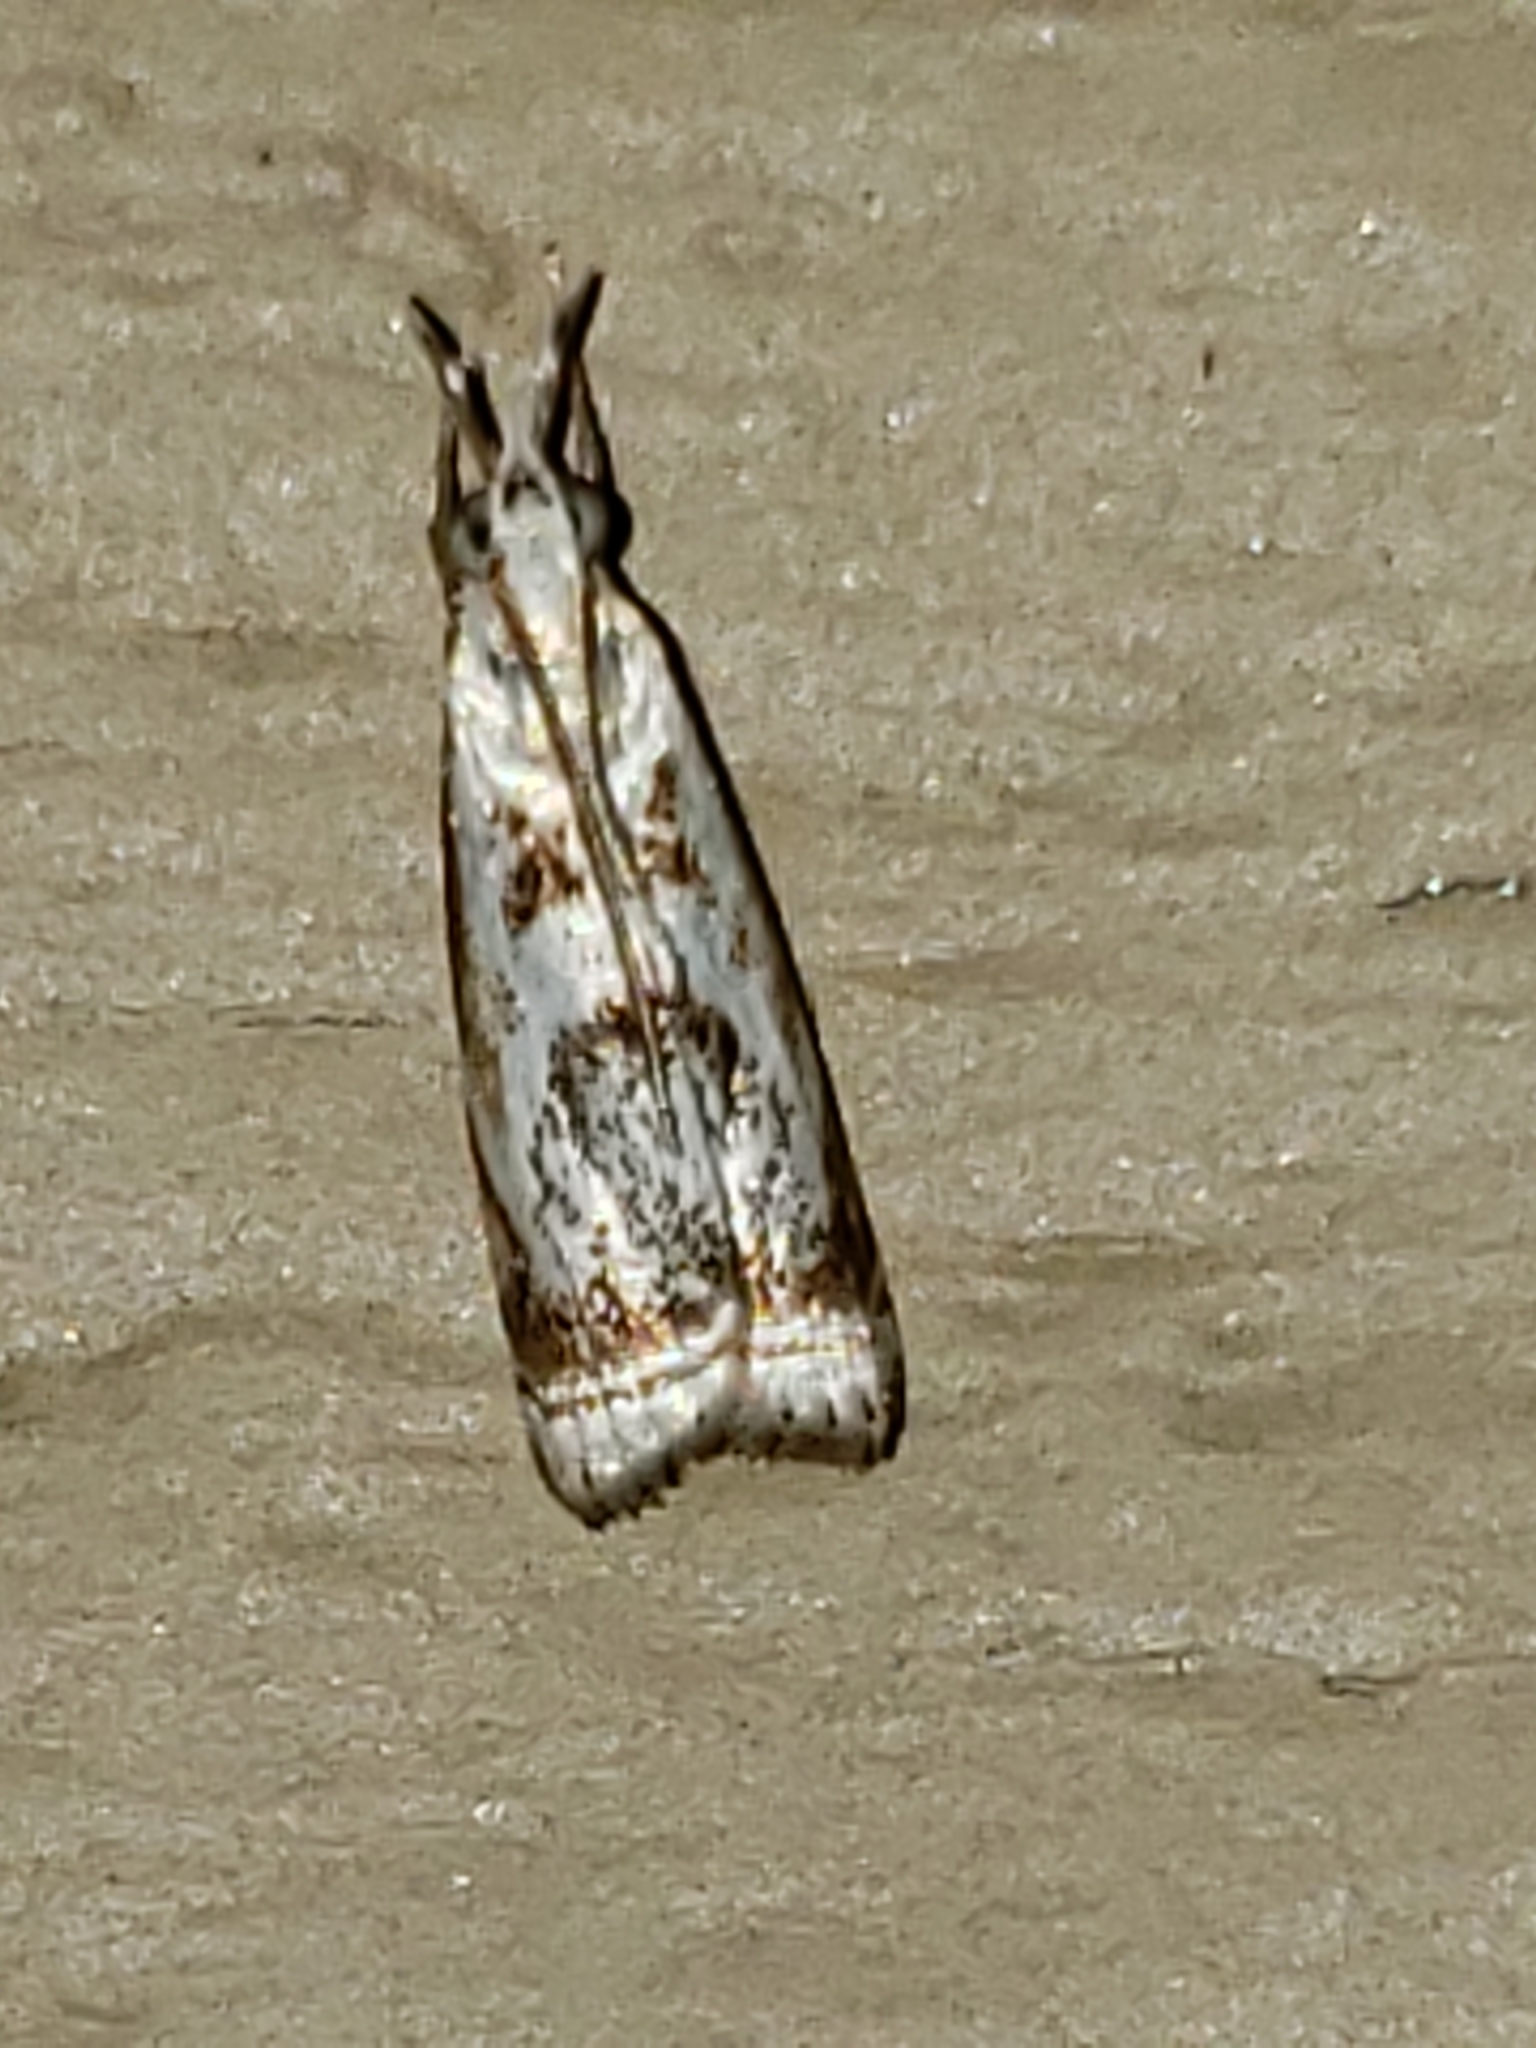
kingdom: Animalia
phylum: Arthropoda
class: Insecta
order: Lepidoptera
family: Crambidae
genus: Microcrambus
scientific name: Microcrambus elegans
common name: Elegant grass-veneer
